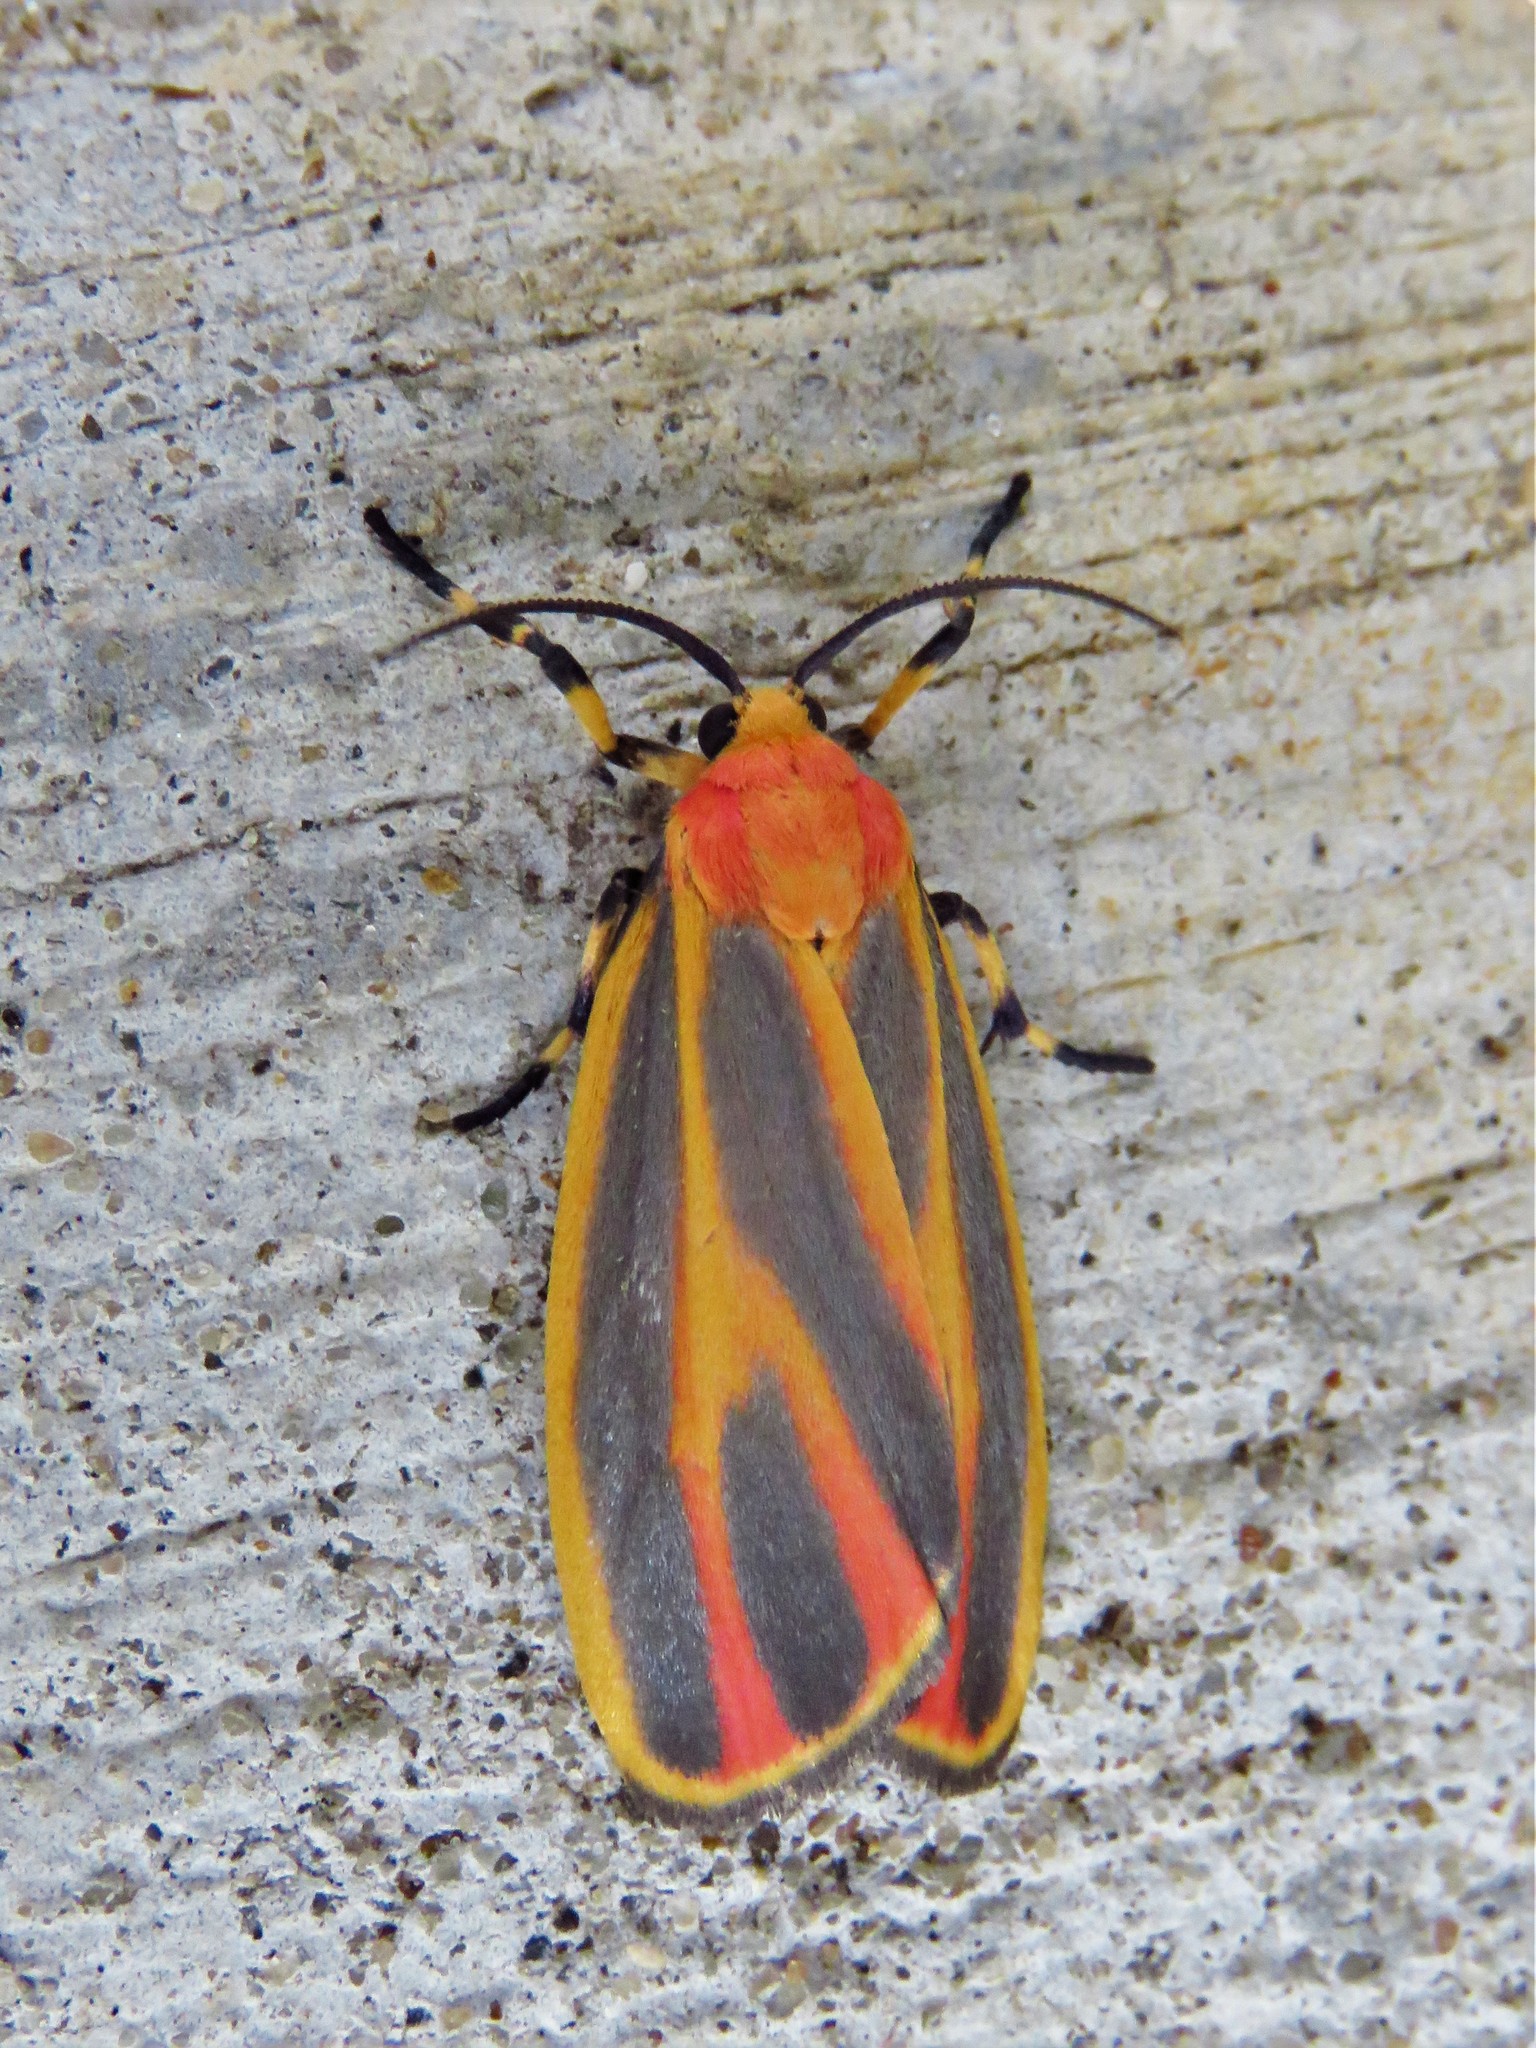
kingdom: Animalia
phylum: Arthropoda
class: Insecta
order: Lepidoptera
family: Erebidae
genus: Hypoprepia
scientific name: Hypoprepia fucosa
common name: Painted lichen moth
